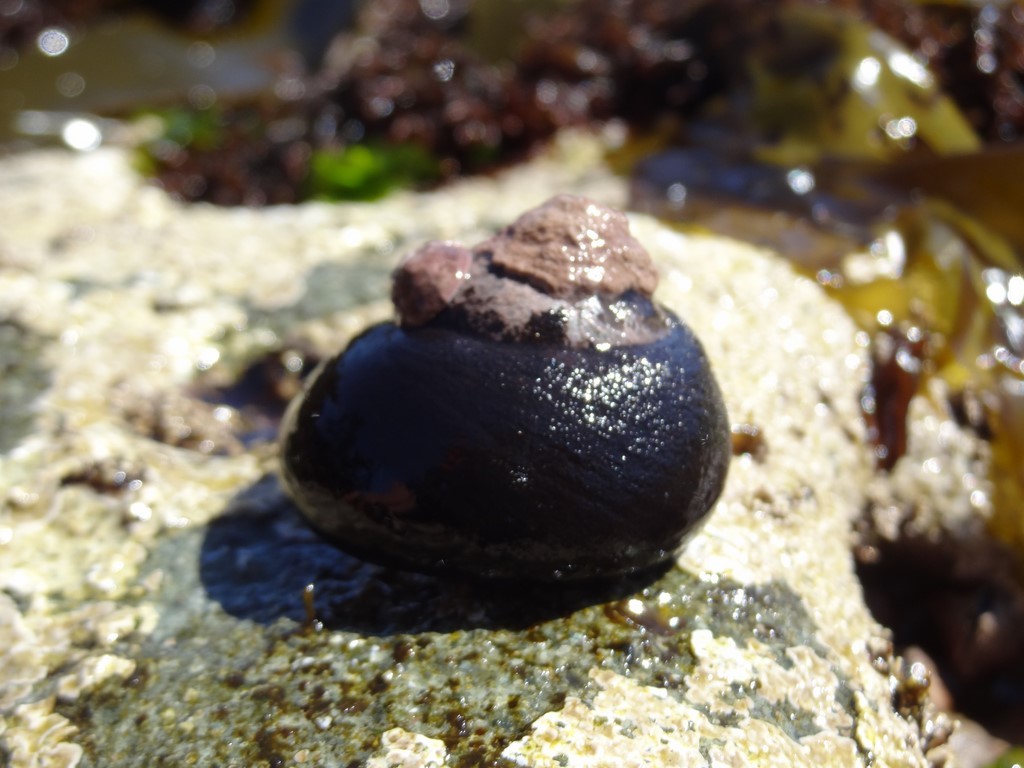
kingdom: Animalia
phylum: Mollusca
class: Gastropoda
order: Trochida
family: Tegulidae
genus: Tegula
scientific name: Tegula atra
